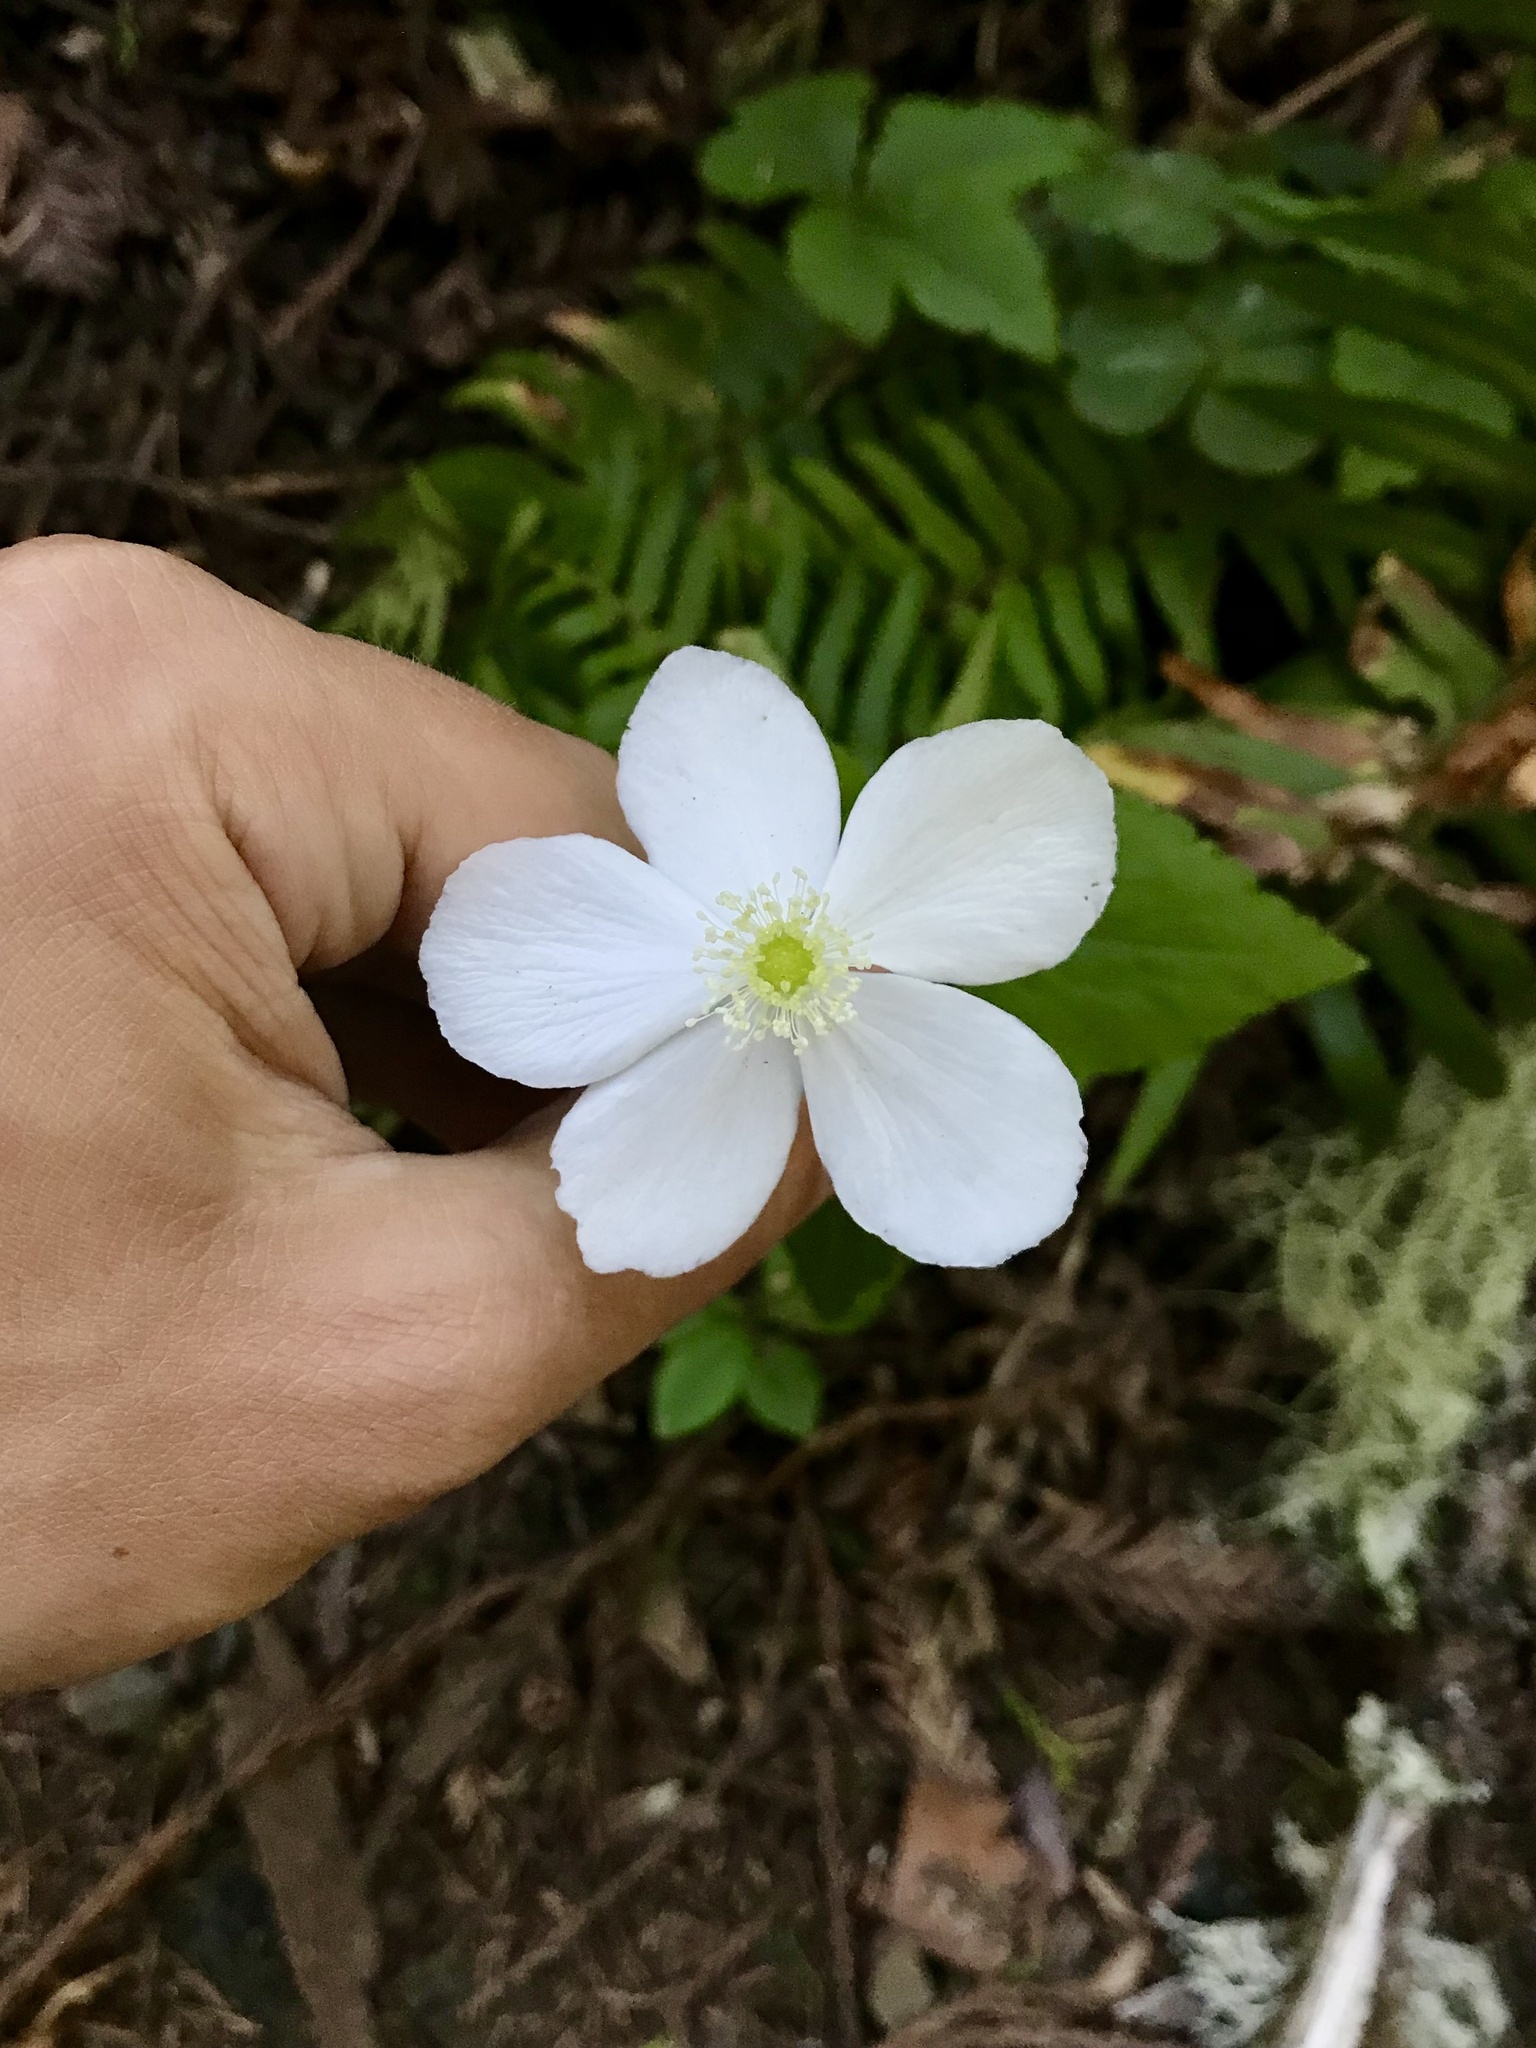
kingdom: Plantae
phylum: Tracheophyta
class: Magnoliopsida
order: Ranunculales
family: Ranunculaceae
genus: Anemonastrum
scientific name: Anemonastrum deltoideum
